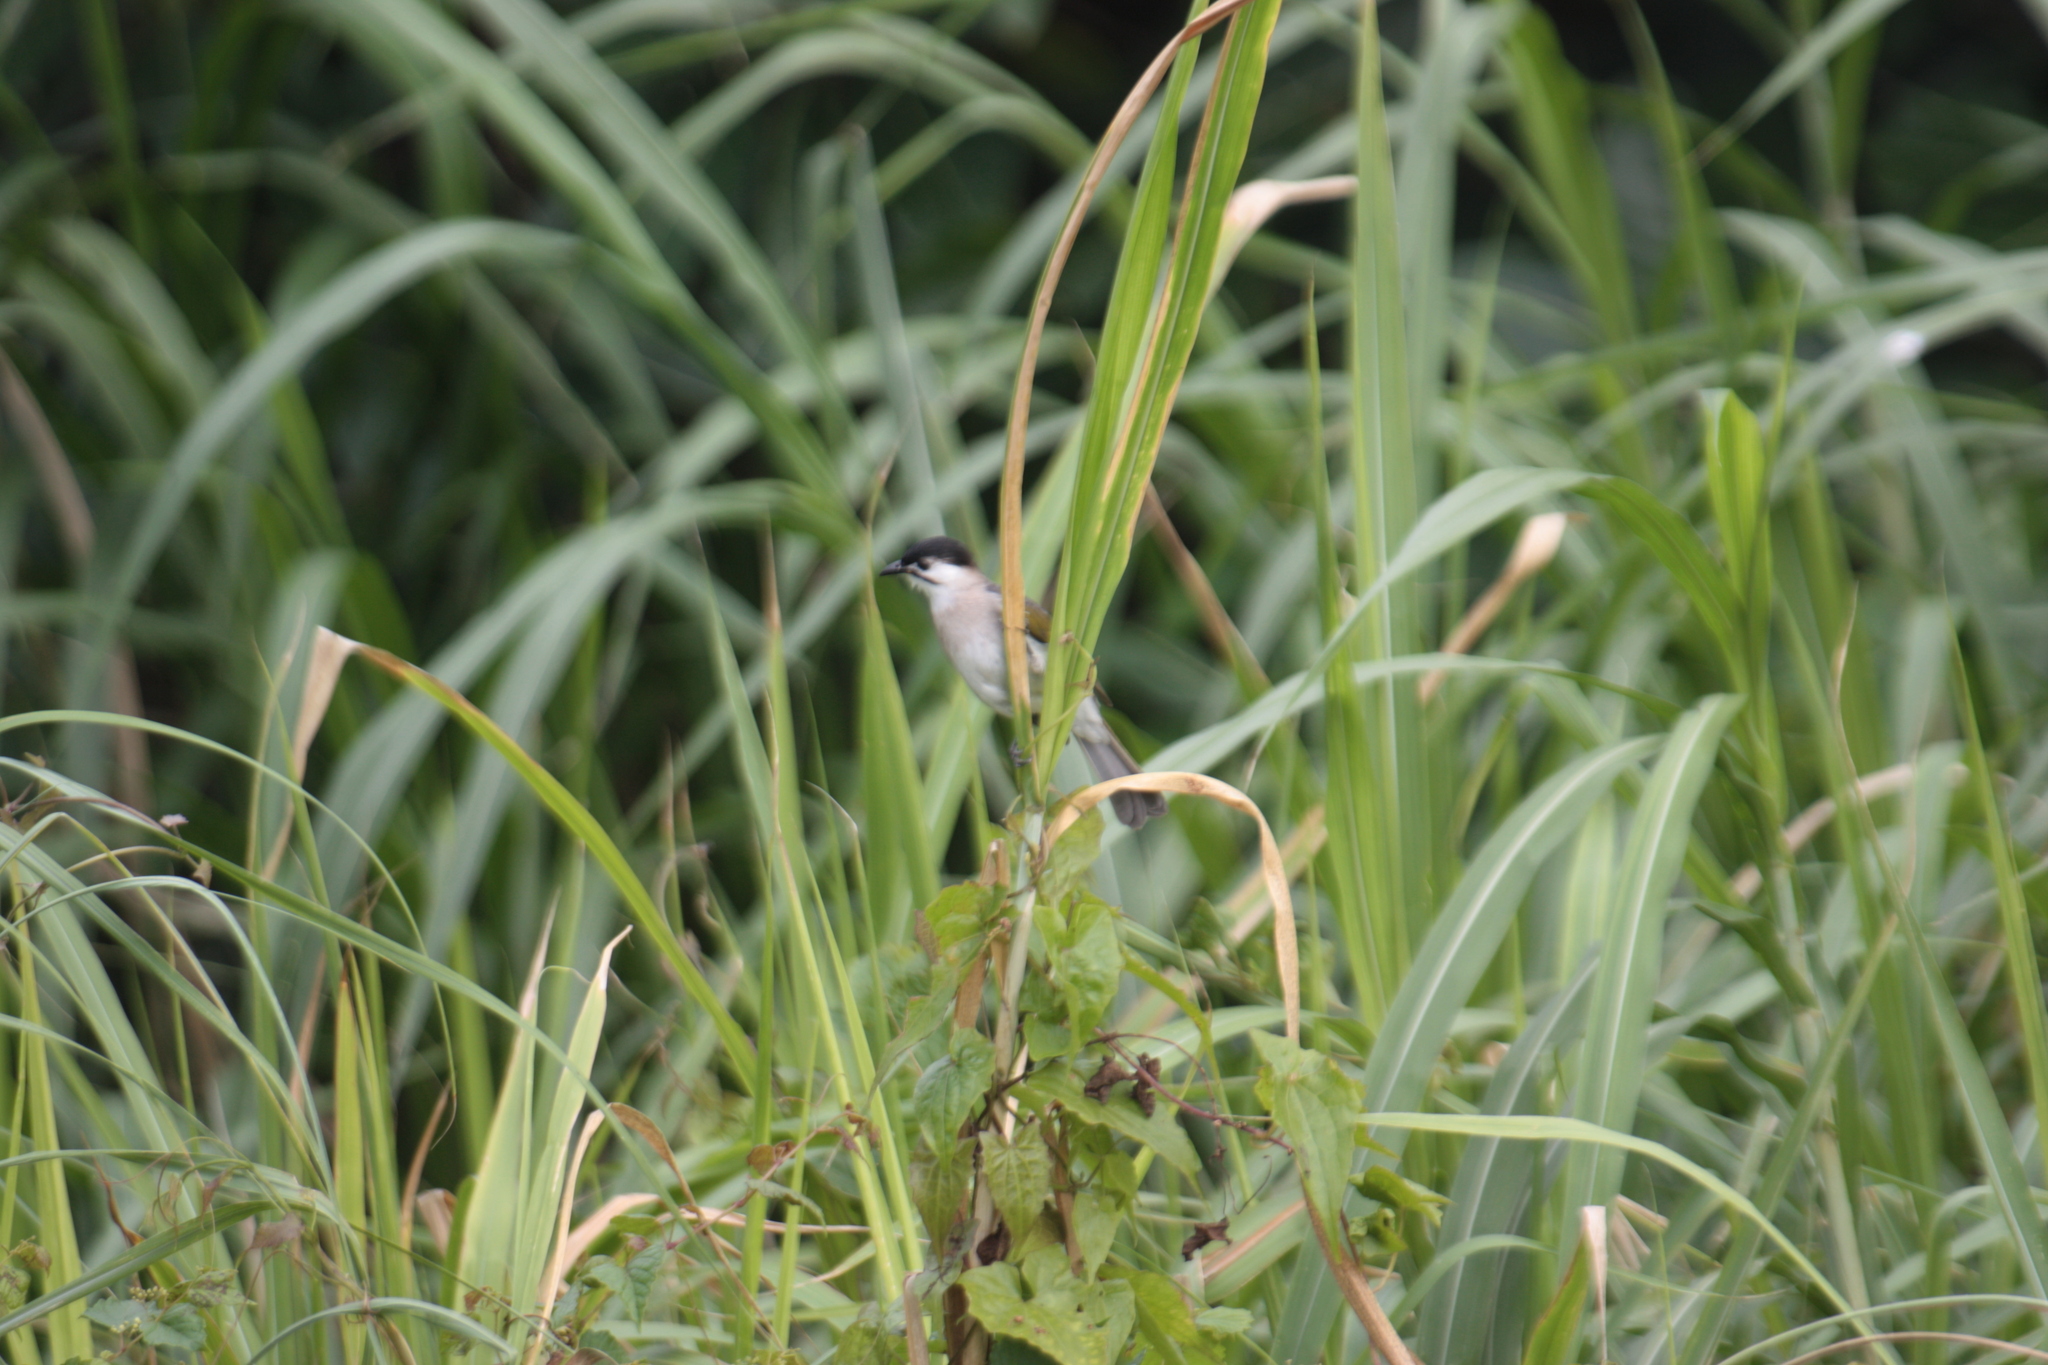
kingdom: Animalia
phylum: Chordata
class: Aves
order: Passeriformes
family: Pycnonotidae
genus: Pycnonotus
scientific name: Pycnonotus taivanus
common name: Styan's bulbul
